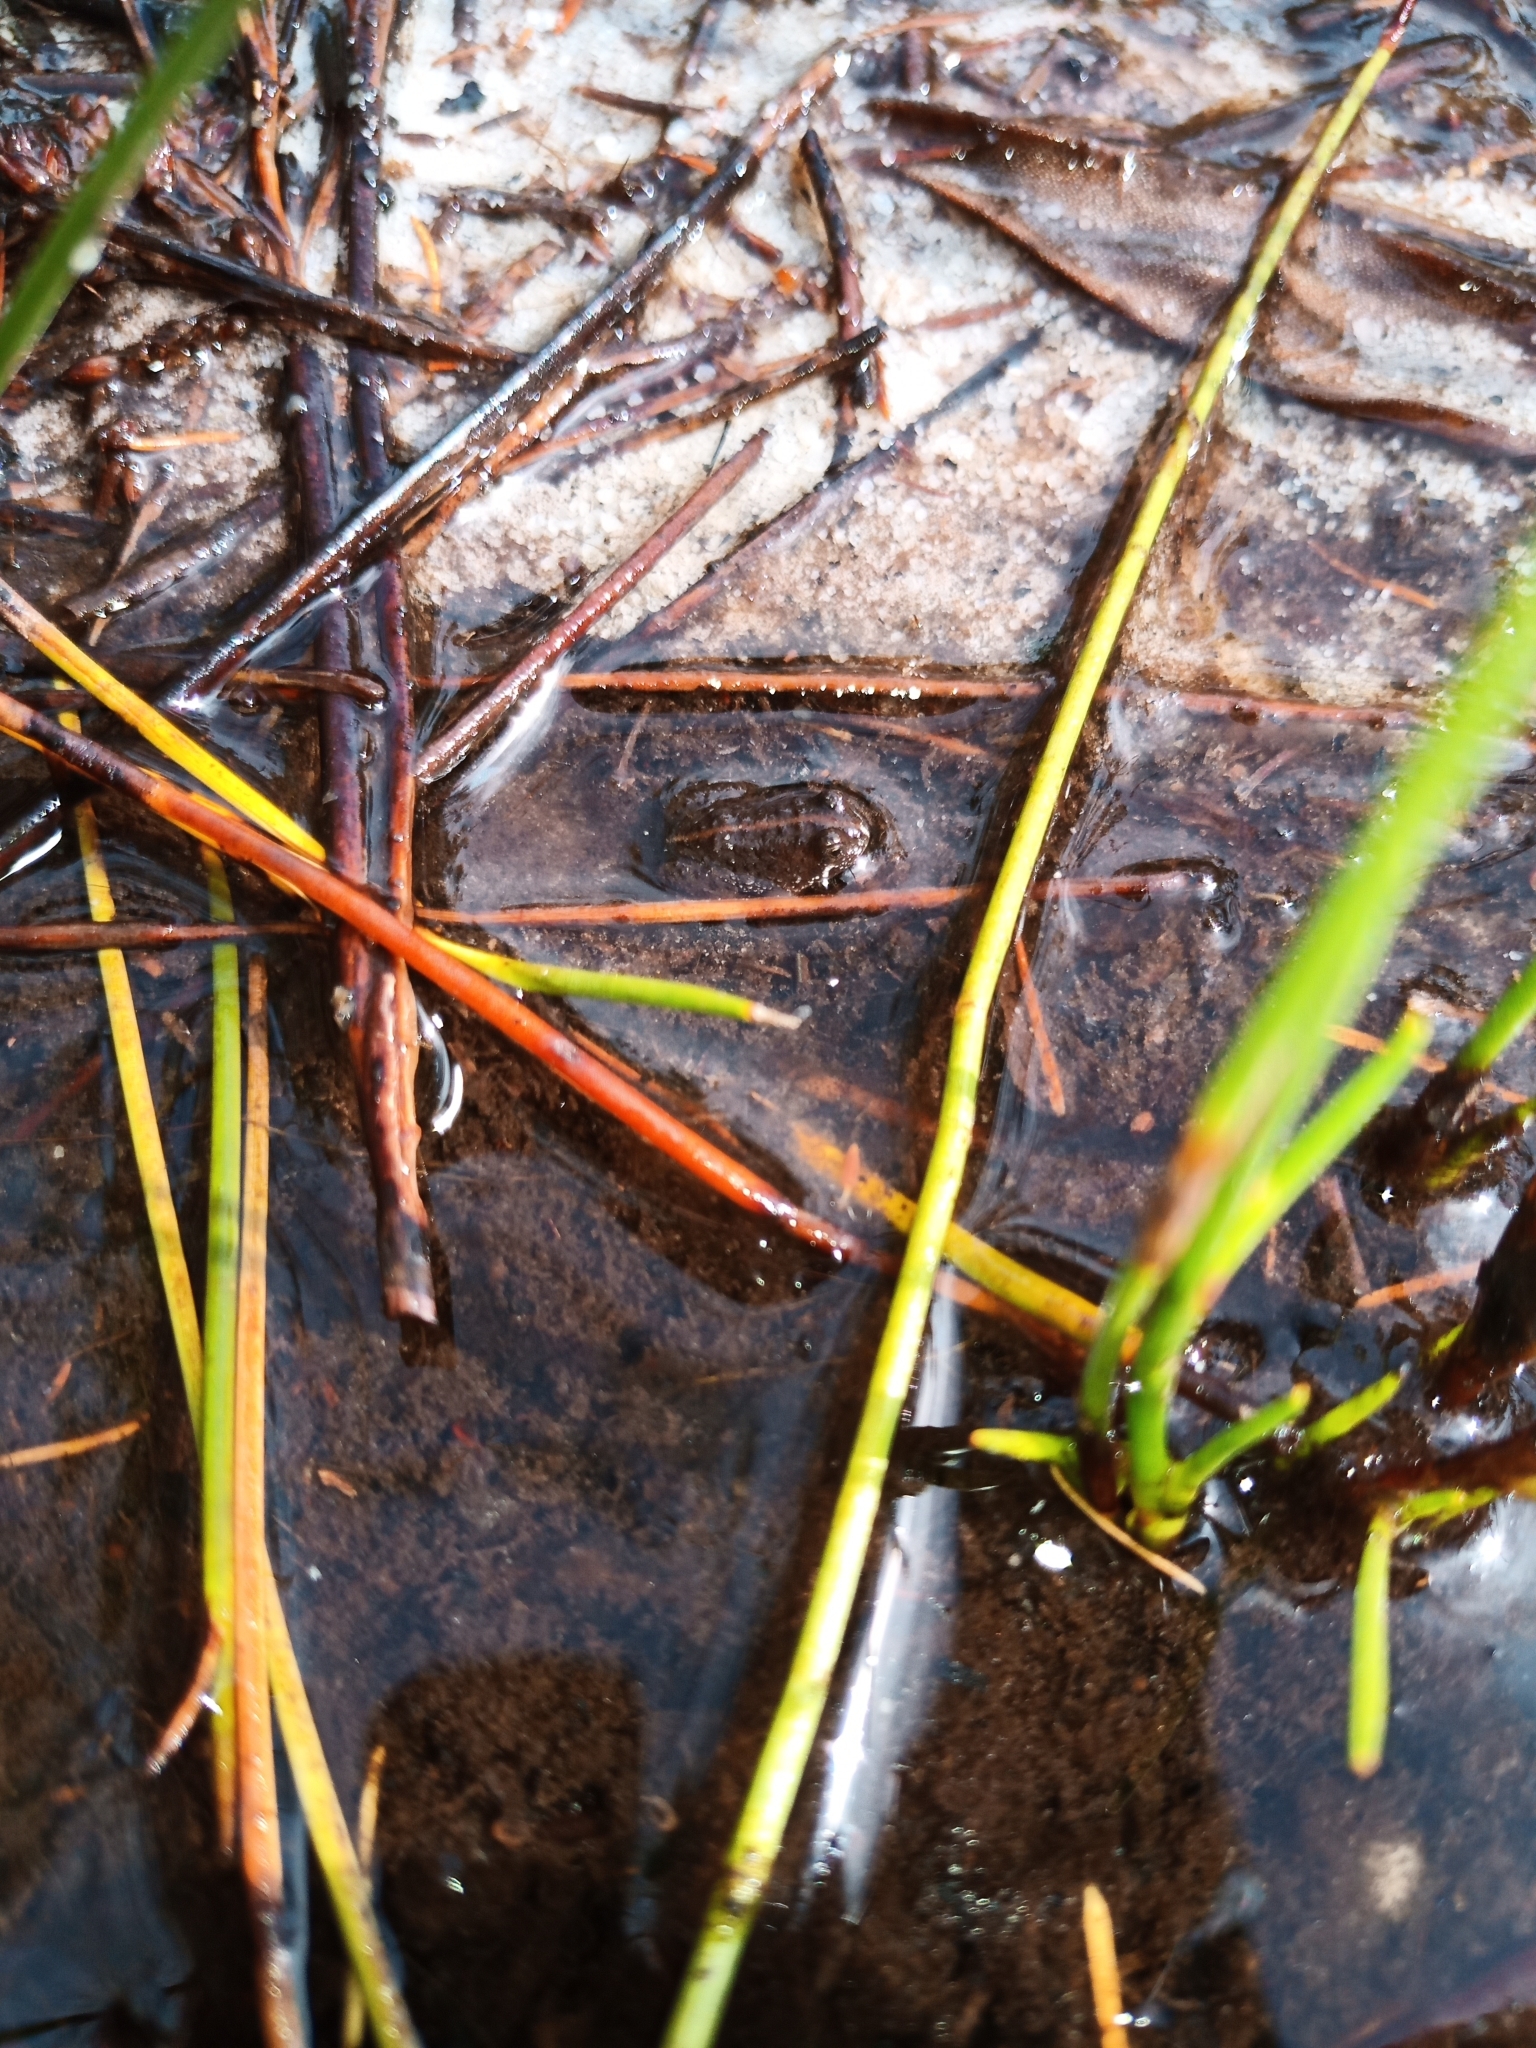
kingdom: Animalia
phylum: Chordata
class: Amphibia
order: Anura
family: Pyxicephalidae
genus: Poyntonia
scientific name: Poyntonia paludicola
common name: Montane marsh frog
